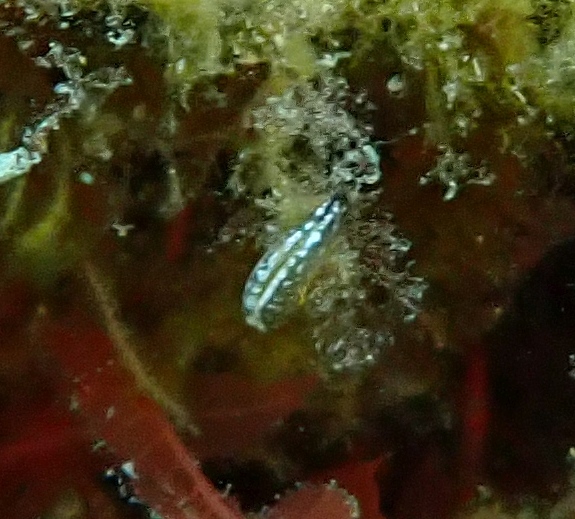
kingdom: Animalia
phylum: Mollusca
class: Gastropoda
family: Plakobranchidae
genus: Elysia
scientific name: Elysia viridis
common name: Green elysia
